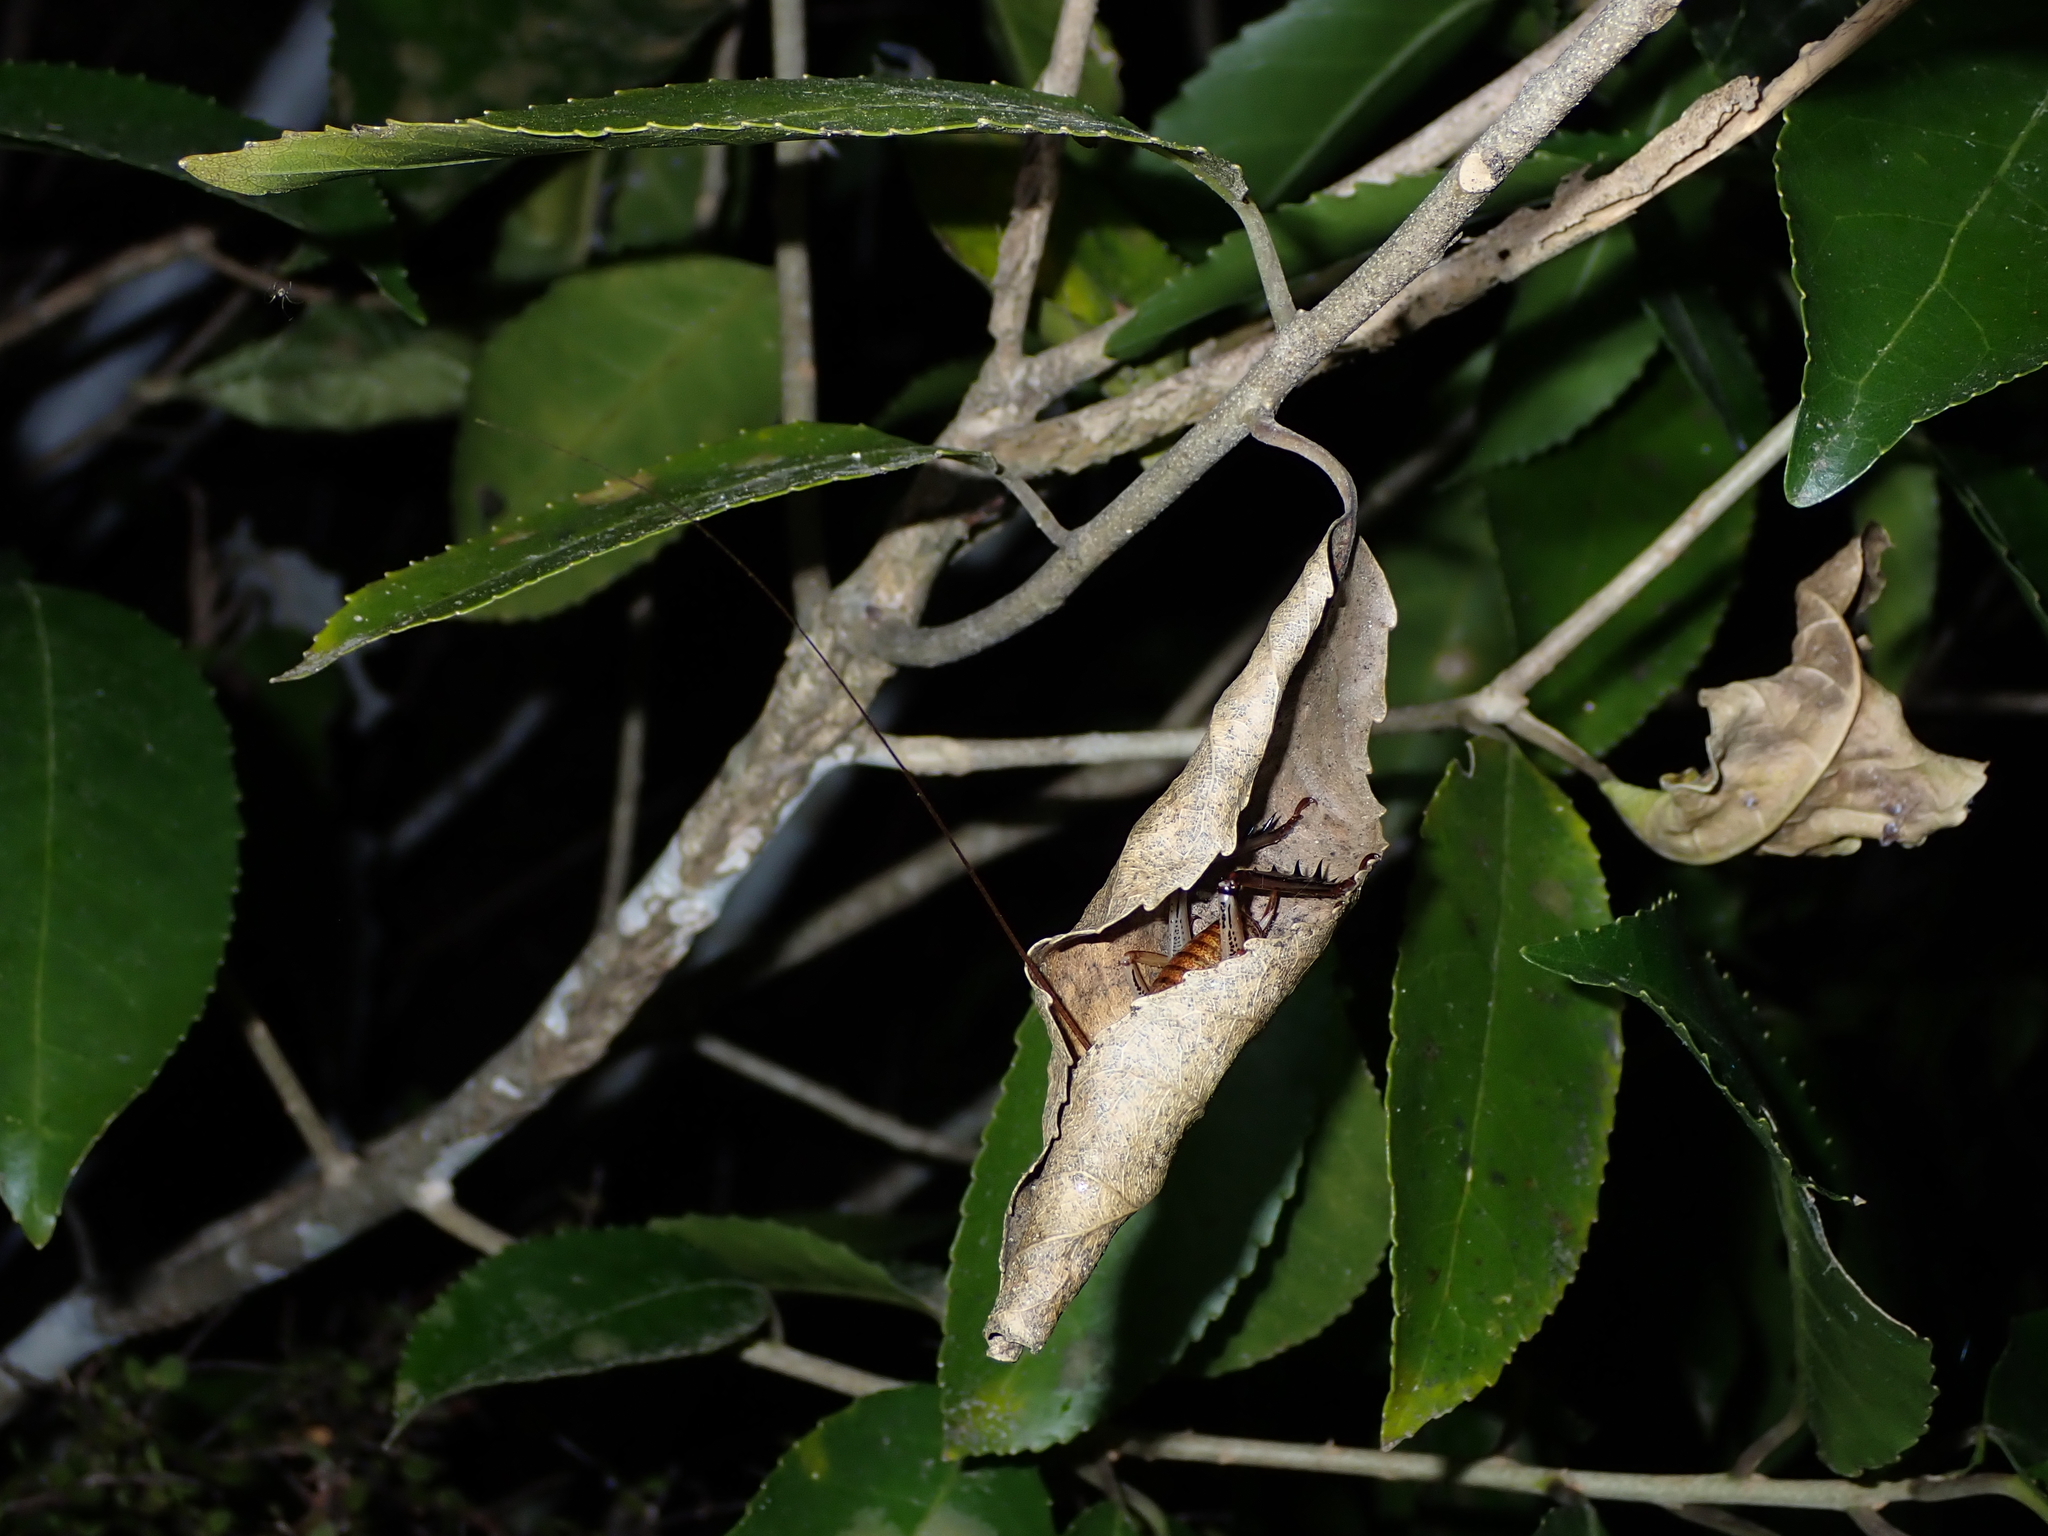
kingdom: Animalia
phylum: Arthropoda
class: Insecta
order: Orthoptera
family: Anostostomatidae
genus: Hemideina
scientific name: Hemideina thoracica
